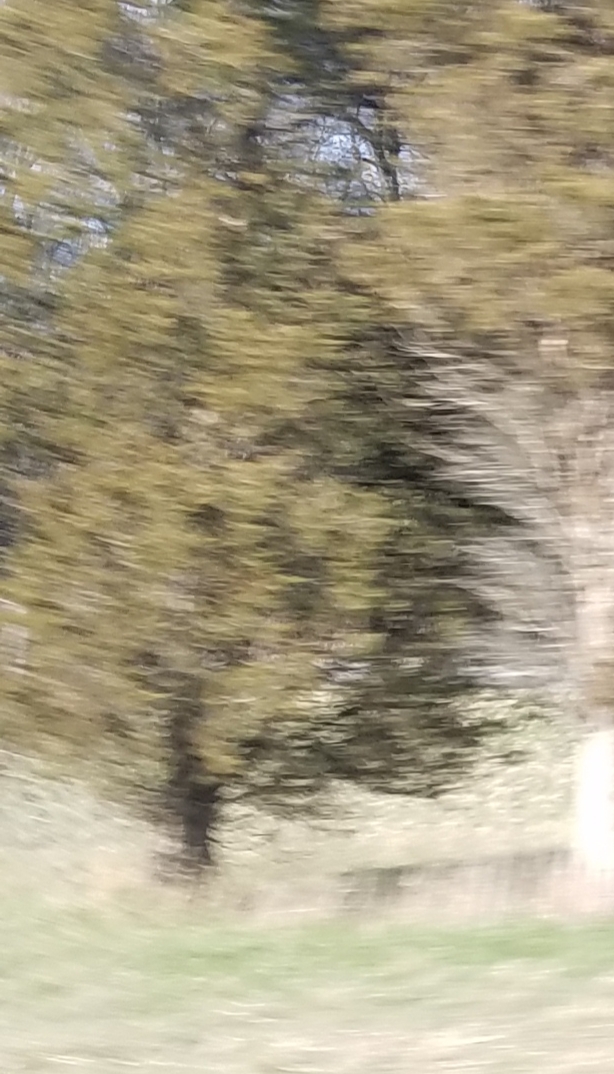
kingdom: Plantae
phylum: Tracheophyta
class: Pinopsida
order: Pinales
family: Cupressaceae
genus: Juniperus
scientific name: Juniperus virginiana
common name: Red juniper
